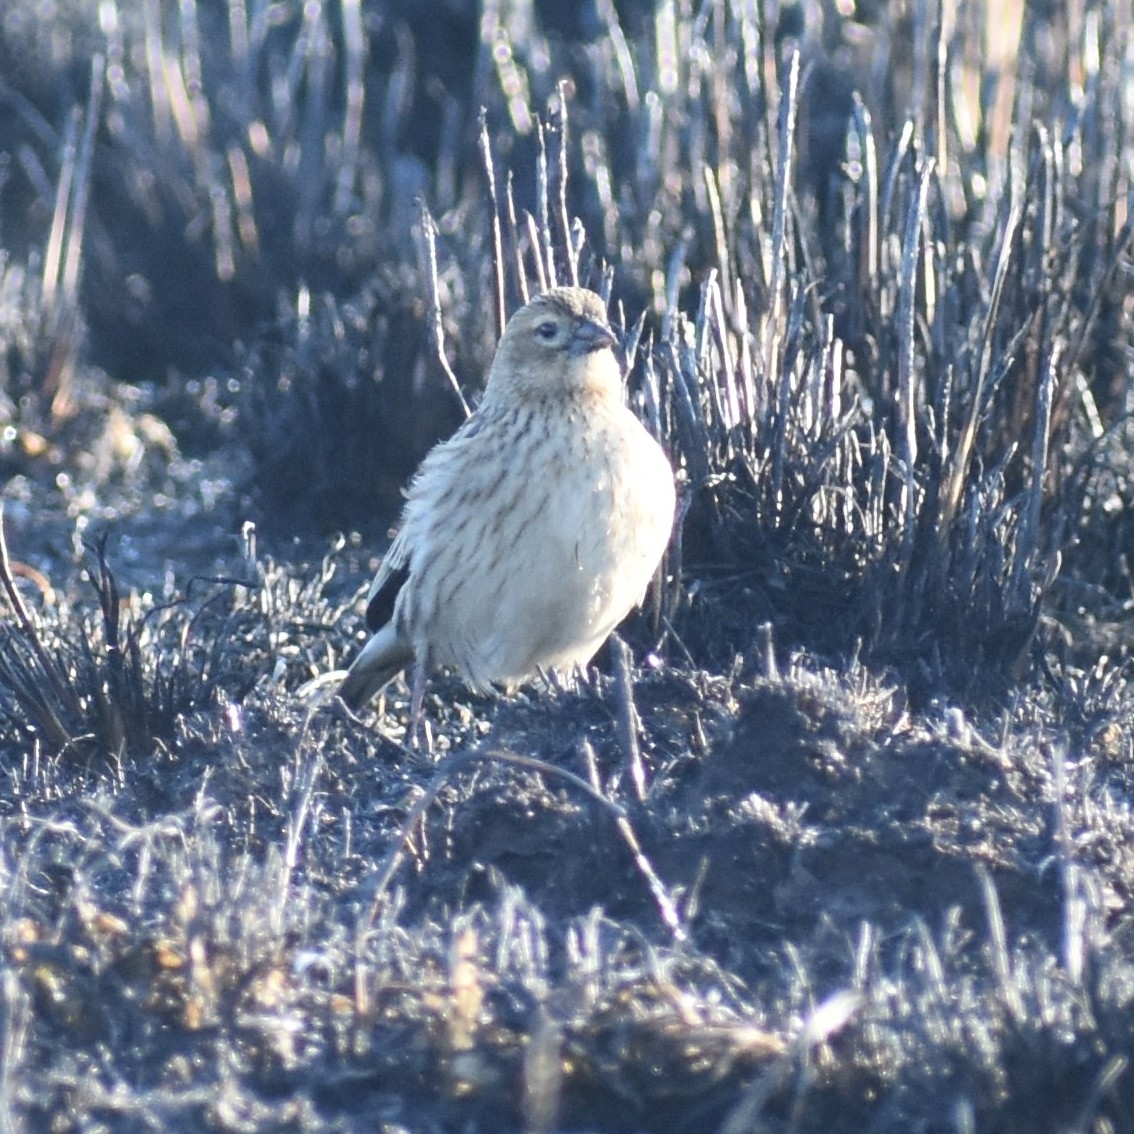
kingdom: Animalia
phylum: Chordata
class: Aves
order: Passeriformes
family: Ploceidae
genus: Euplectes
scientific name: Euplectes progne
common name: Long-tailed widowbird
